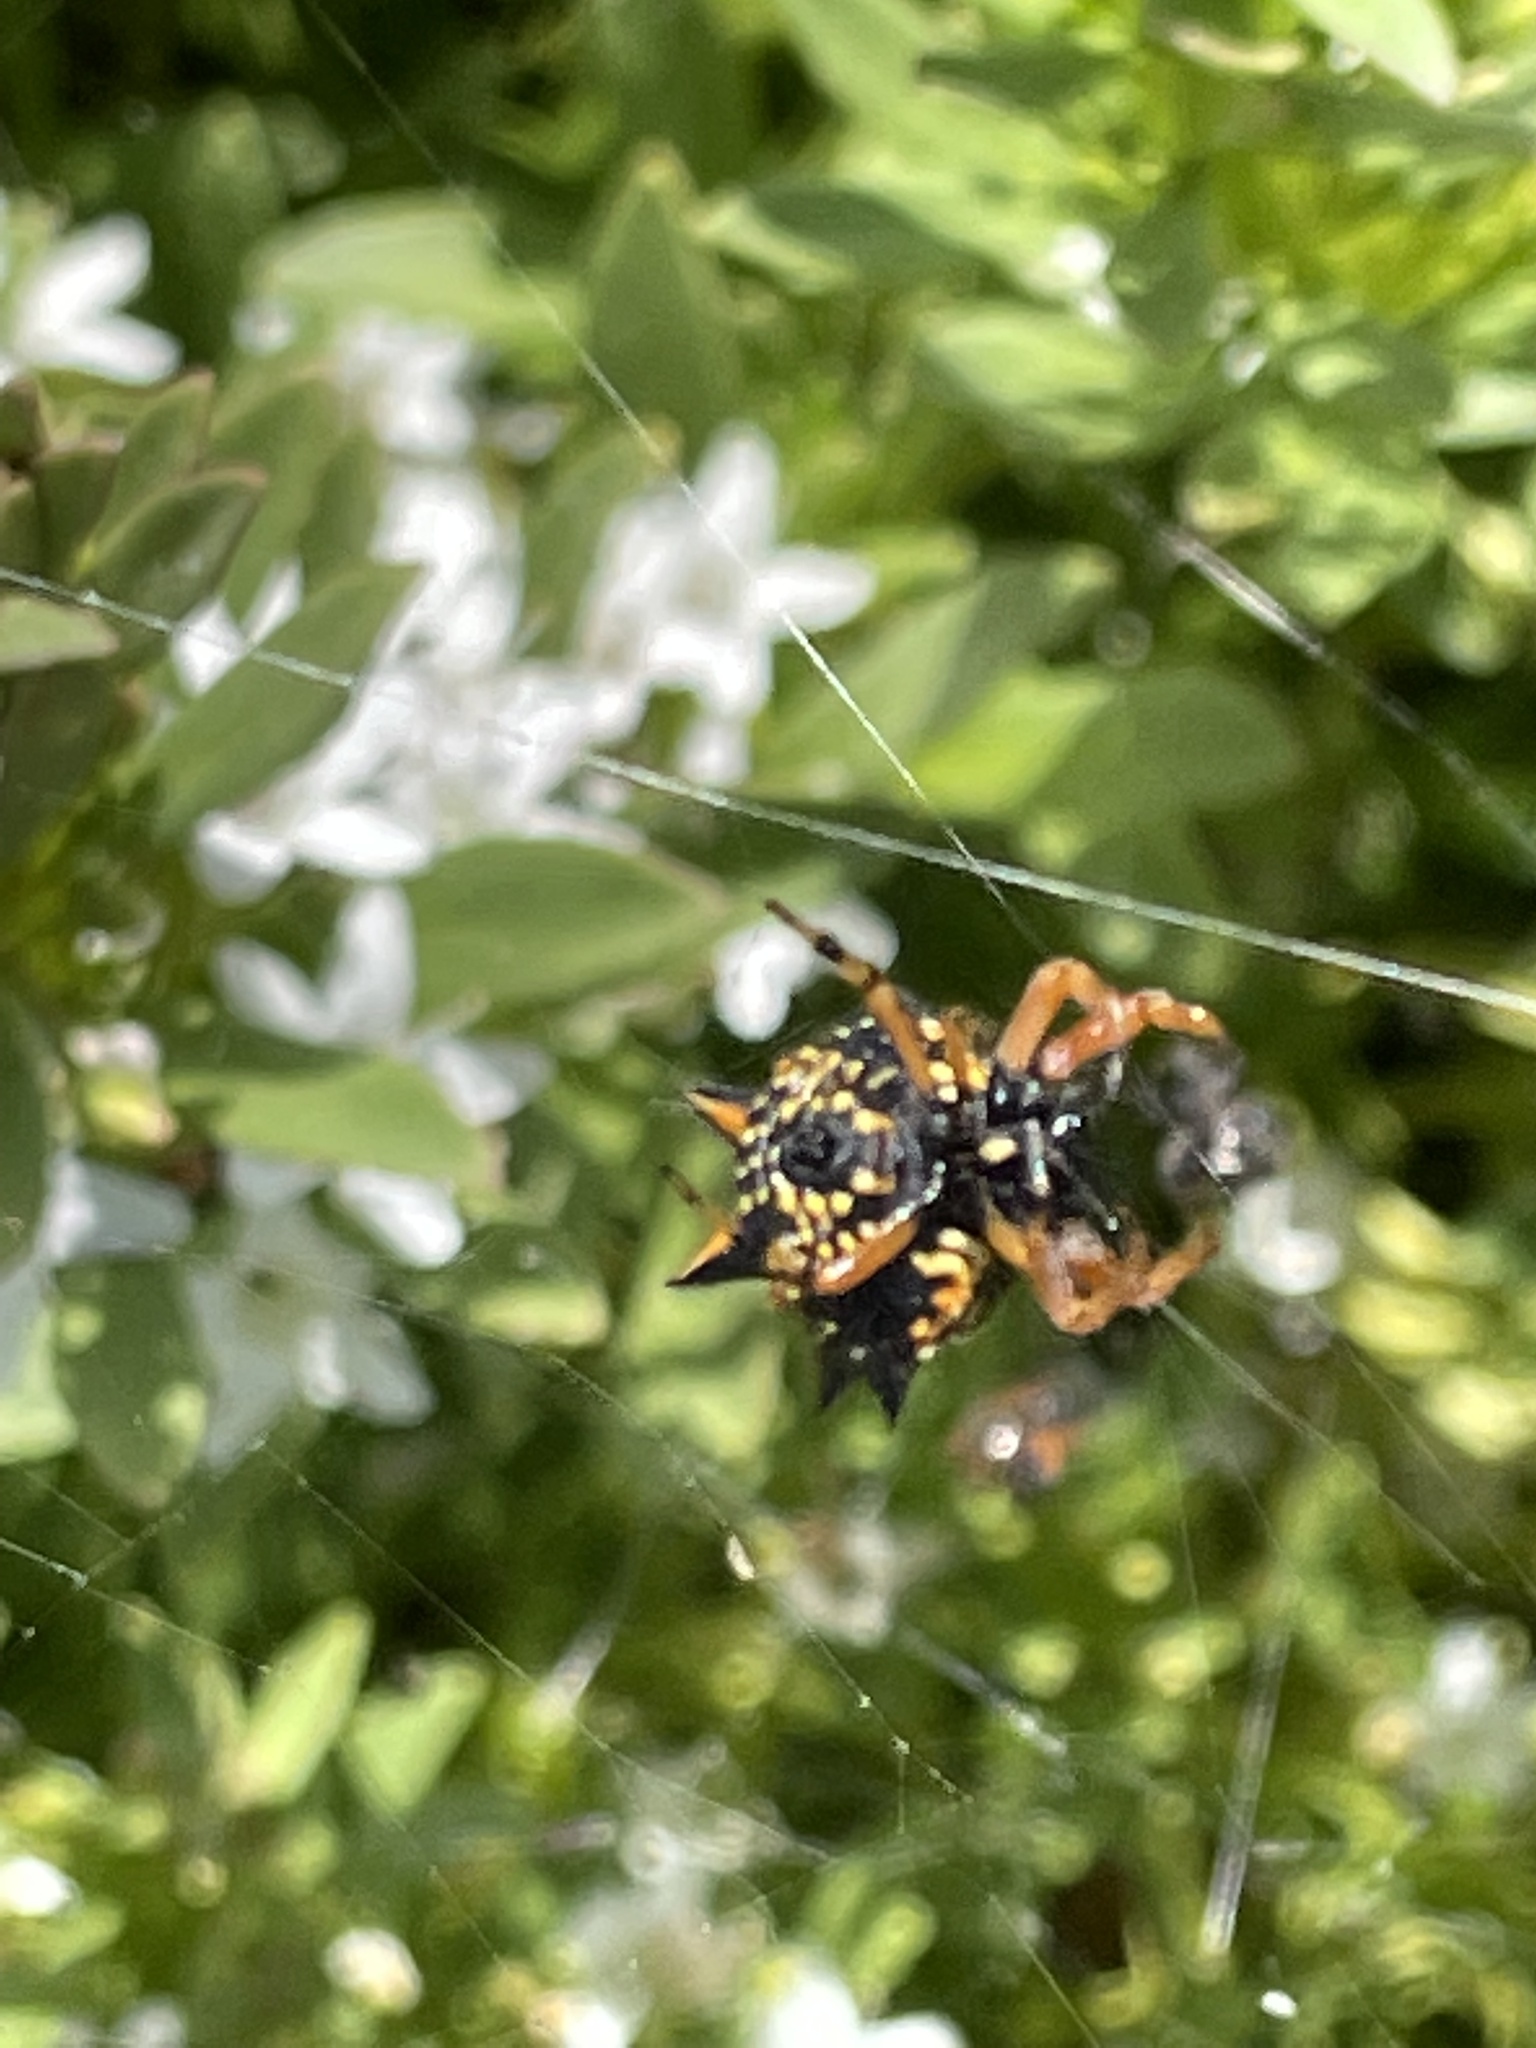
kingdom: Animalia
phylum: Arthropoda
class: Arachnida
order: Araneae
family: Araneidae
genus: Austracantha
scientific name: Austracantha minax
